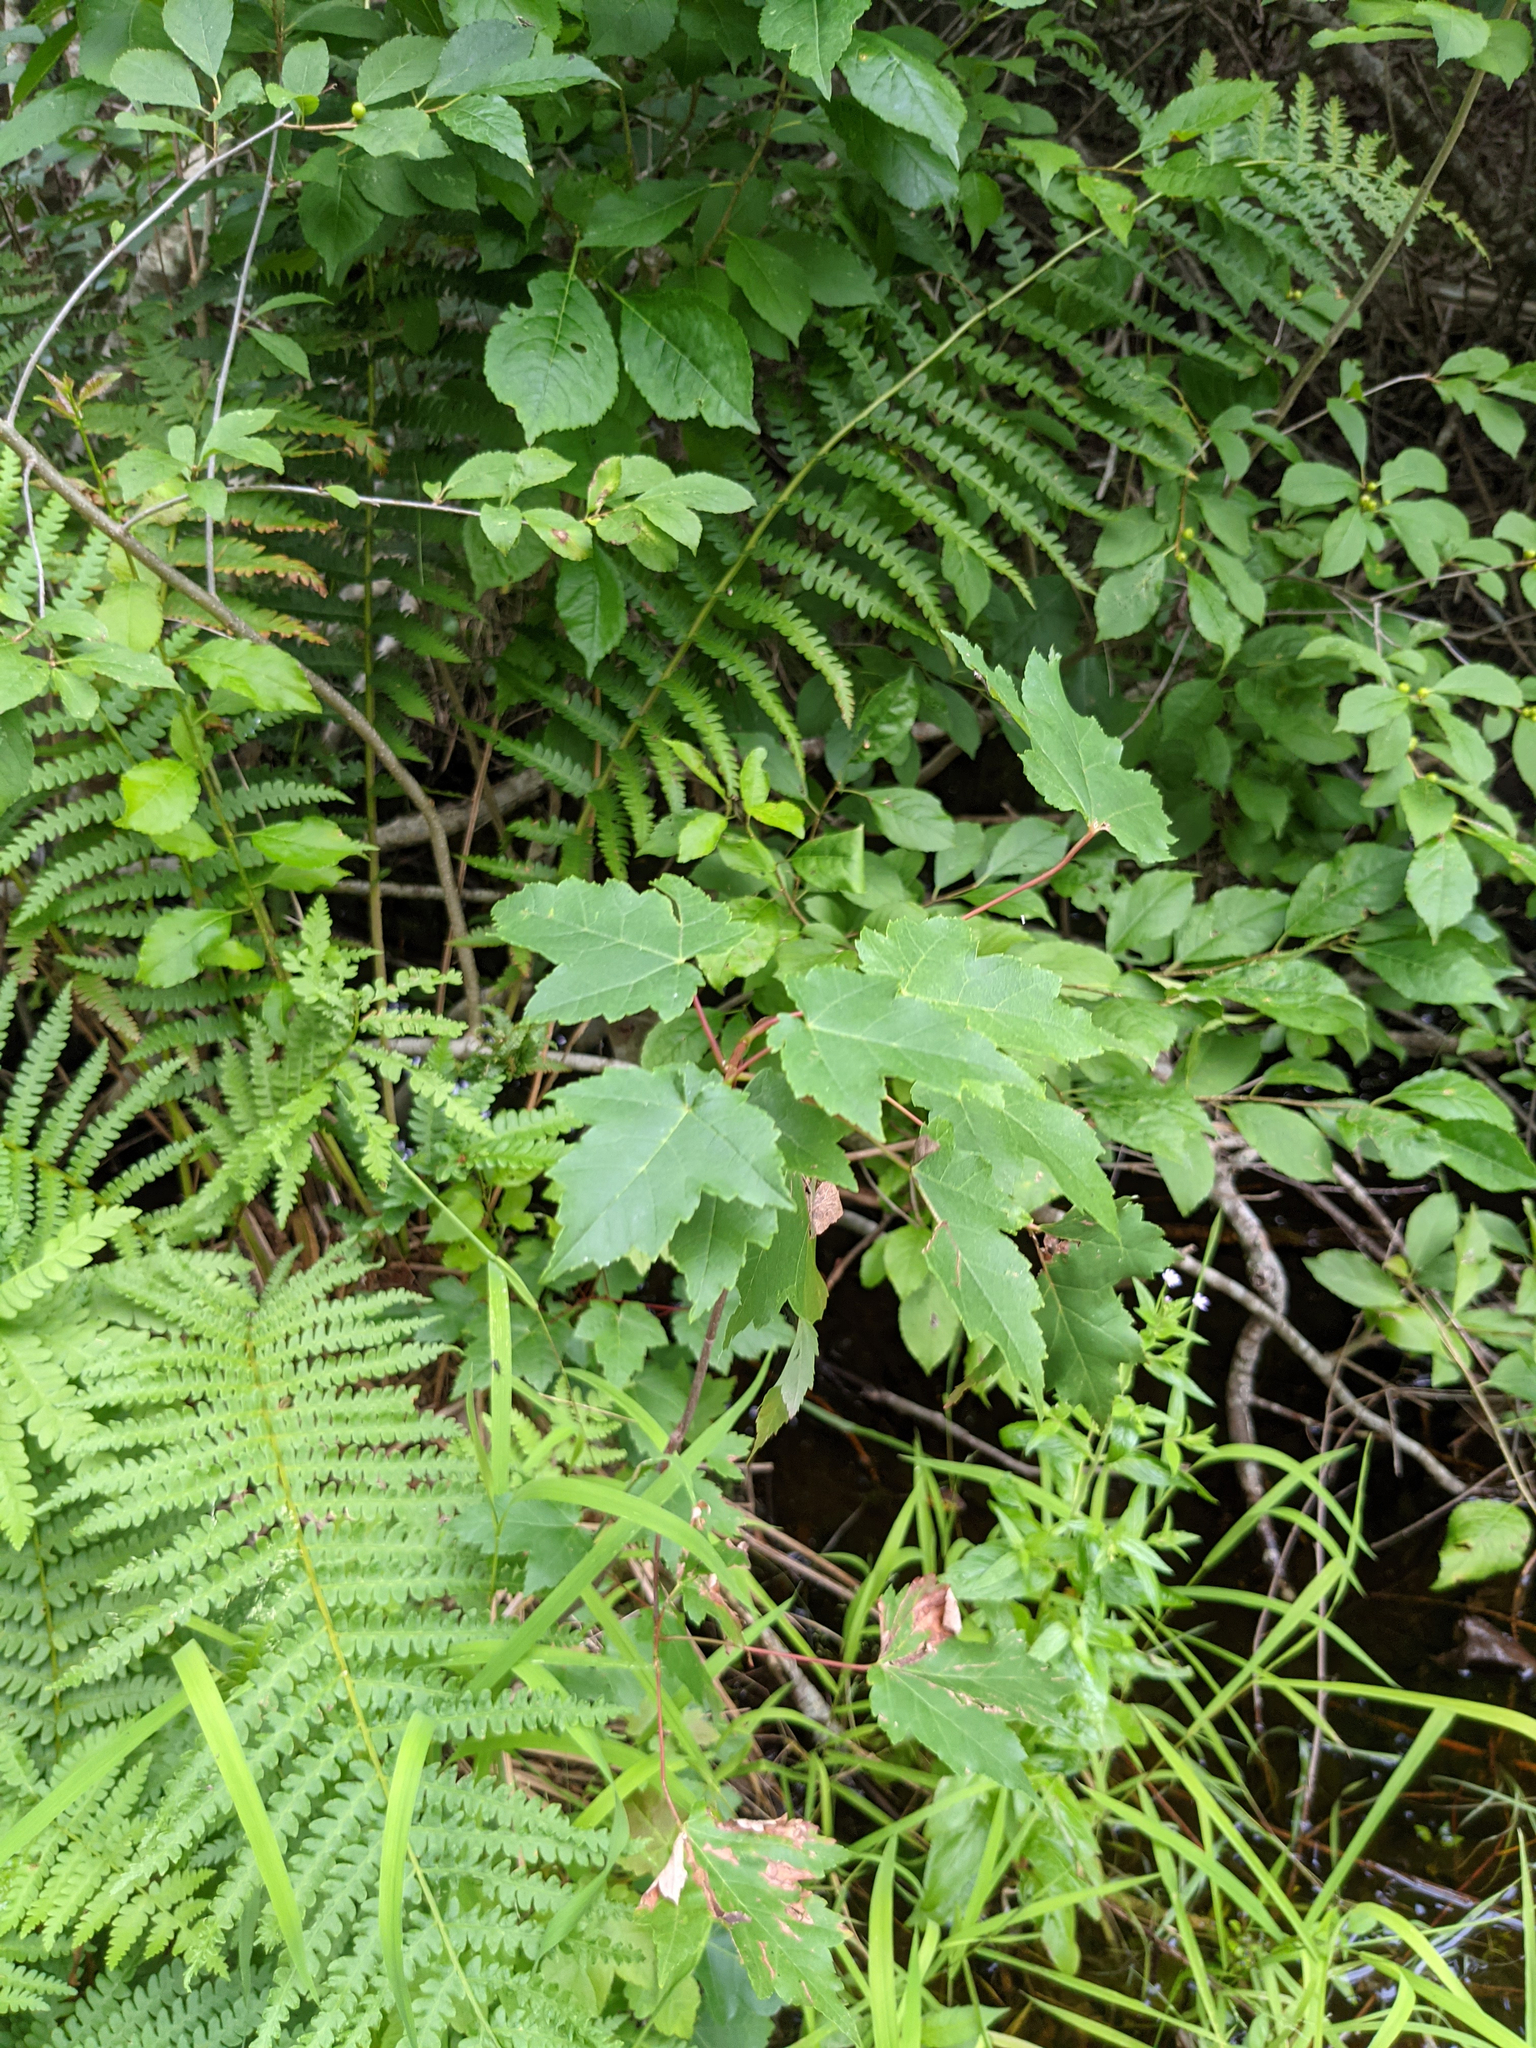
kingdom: Plantae
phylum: Tracheophyta
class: Magnoliopsida
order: Sapindales
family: Sapindaceae
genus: Acer
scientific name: Acer rubrum
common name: Red maple
